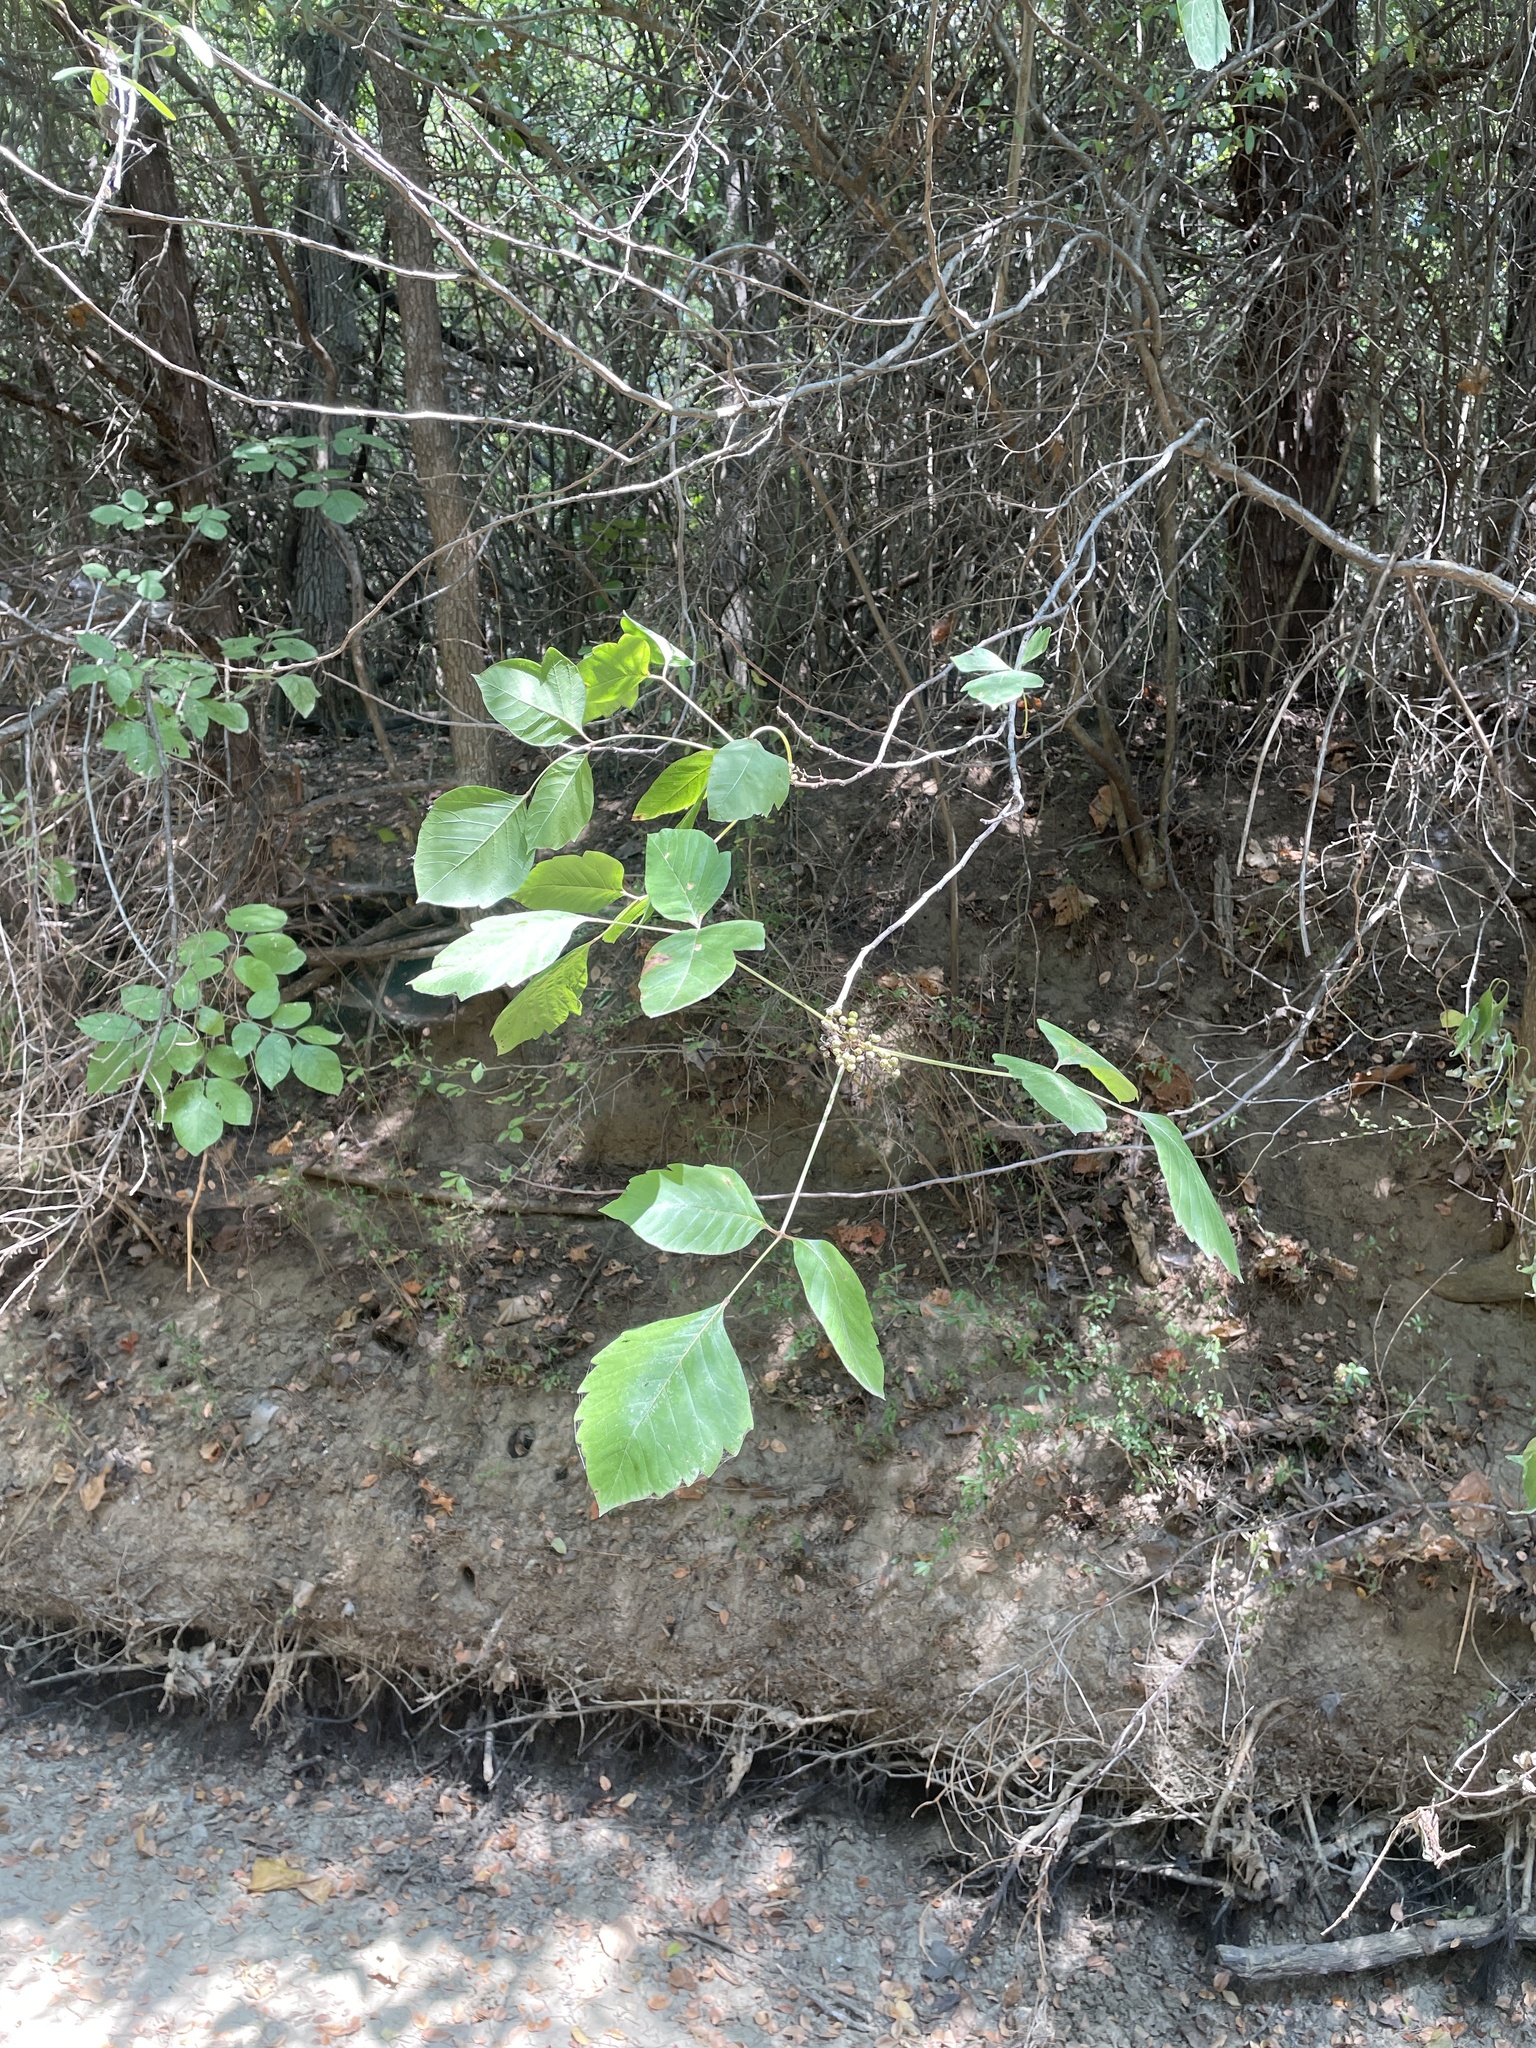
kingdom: Plantae
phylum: Tracheophyta
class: Magnoliopsida
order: Sapindales
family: Anacardiaceae
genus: Toxicodendron
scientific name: Toxicodendron radicans
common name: Poison ivy
